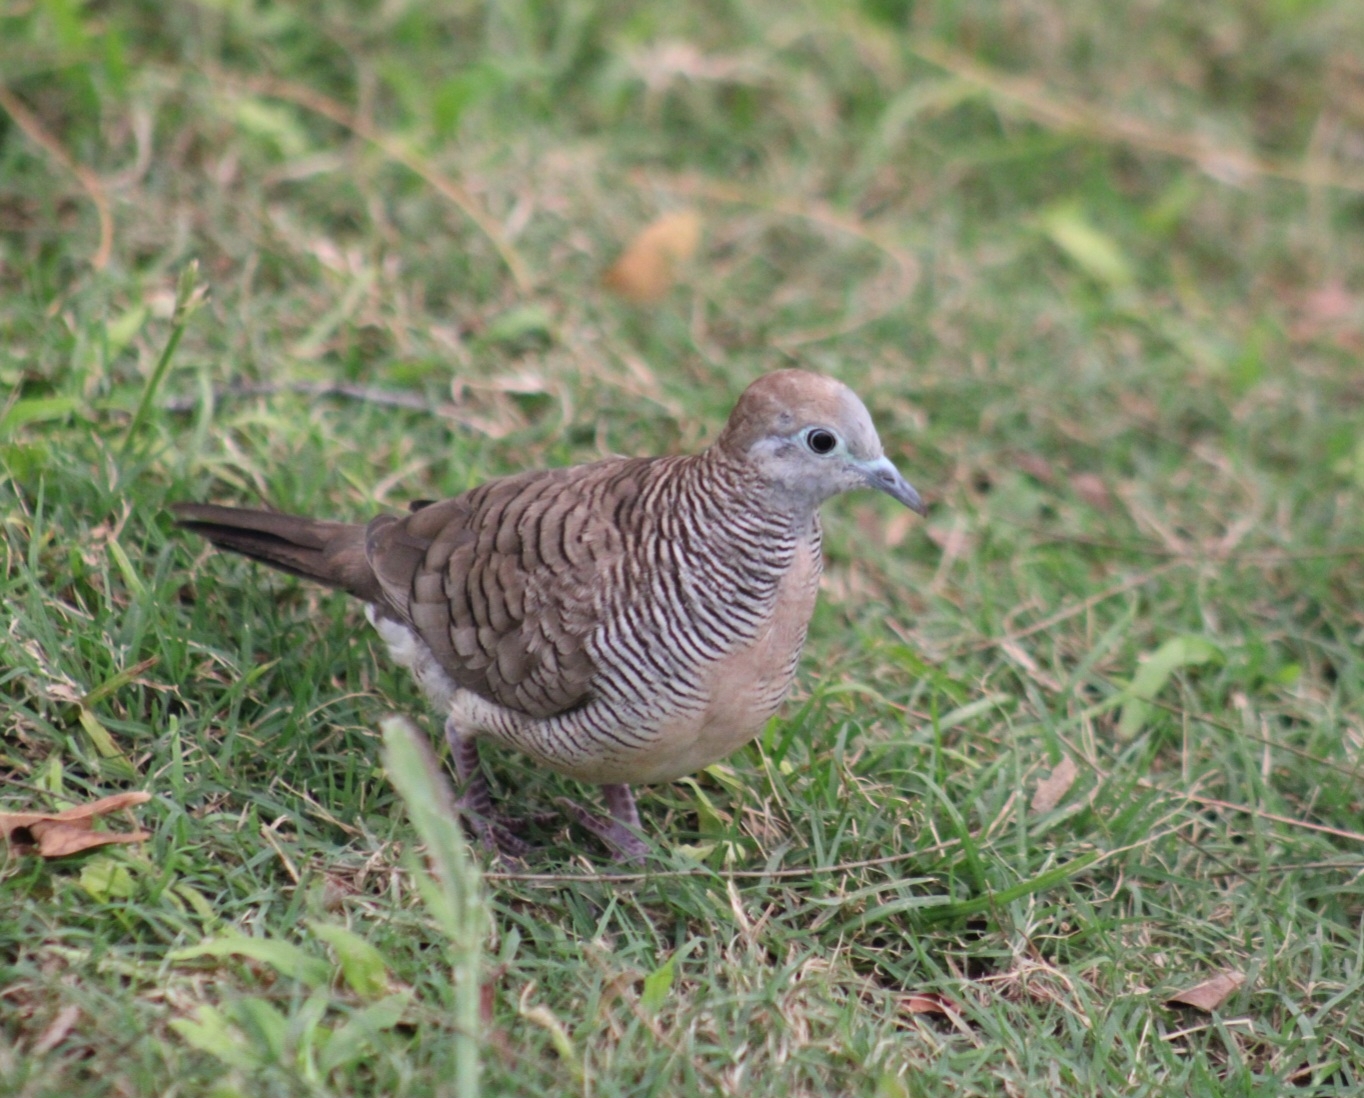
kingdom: Animalia
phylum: Chordata
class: Aves
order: Columbiformes
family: Columbidae
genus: Geopelia
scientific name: Geopelia striata
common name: Zebra dove
